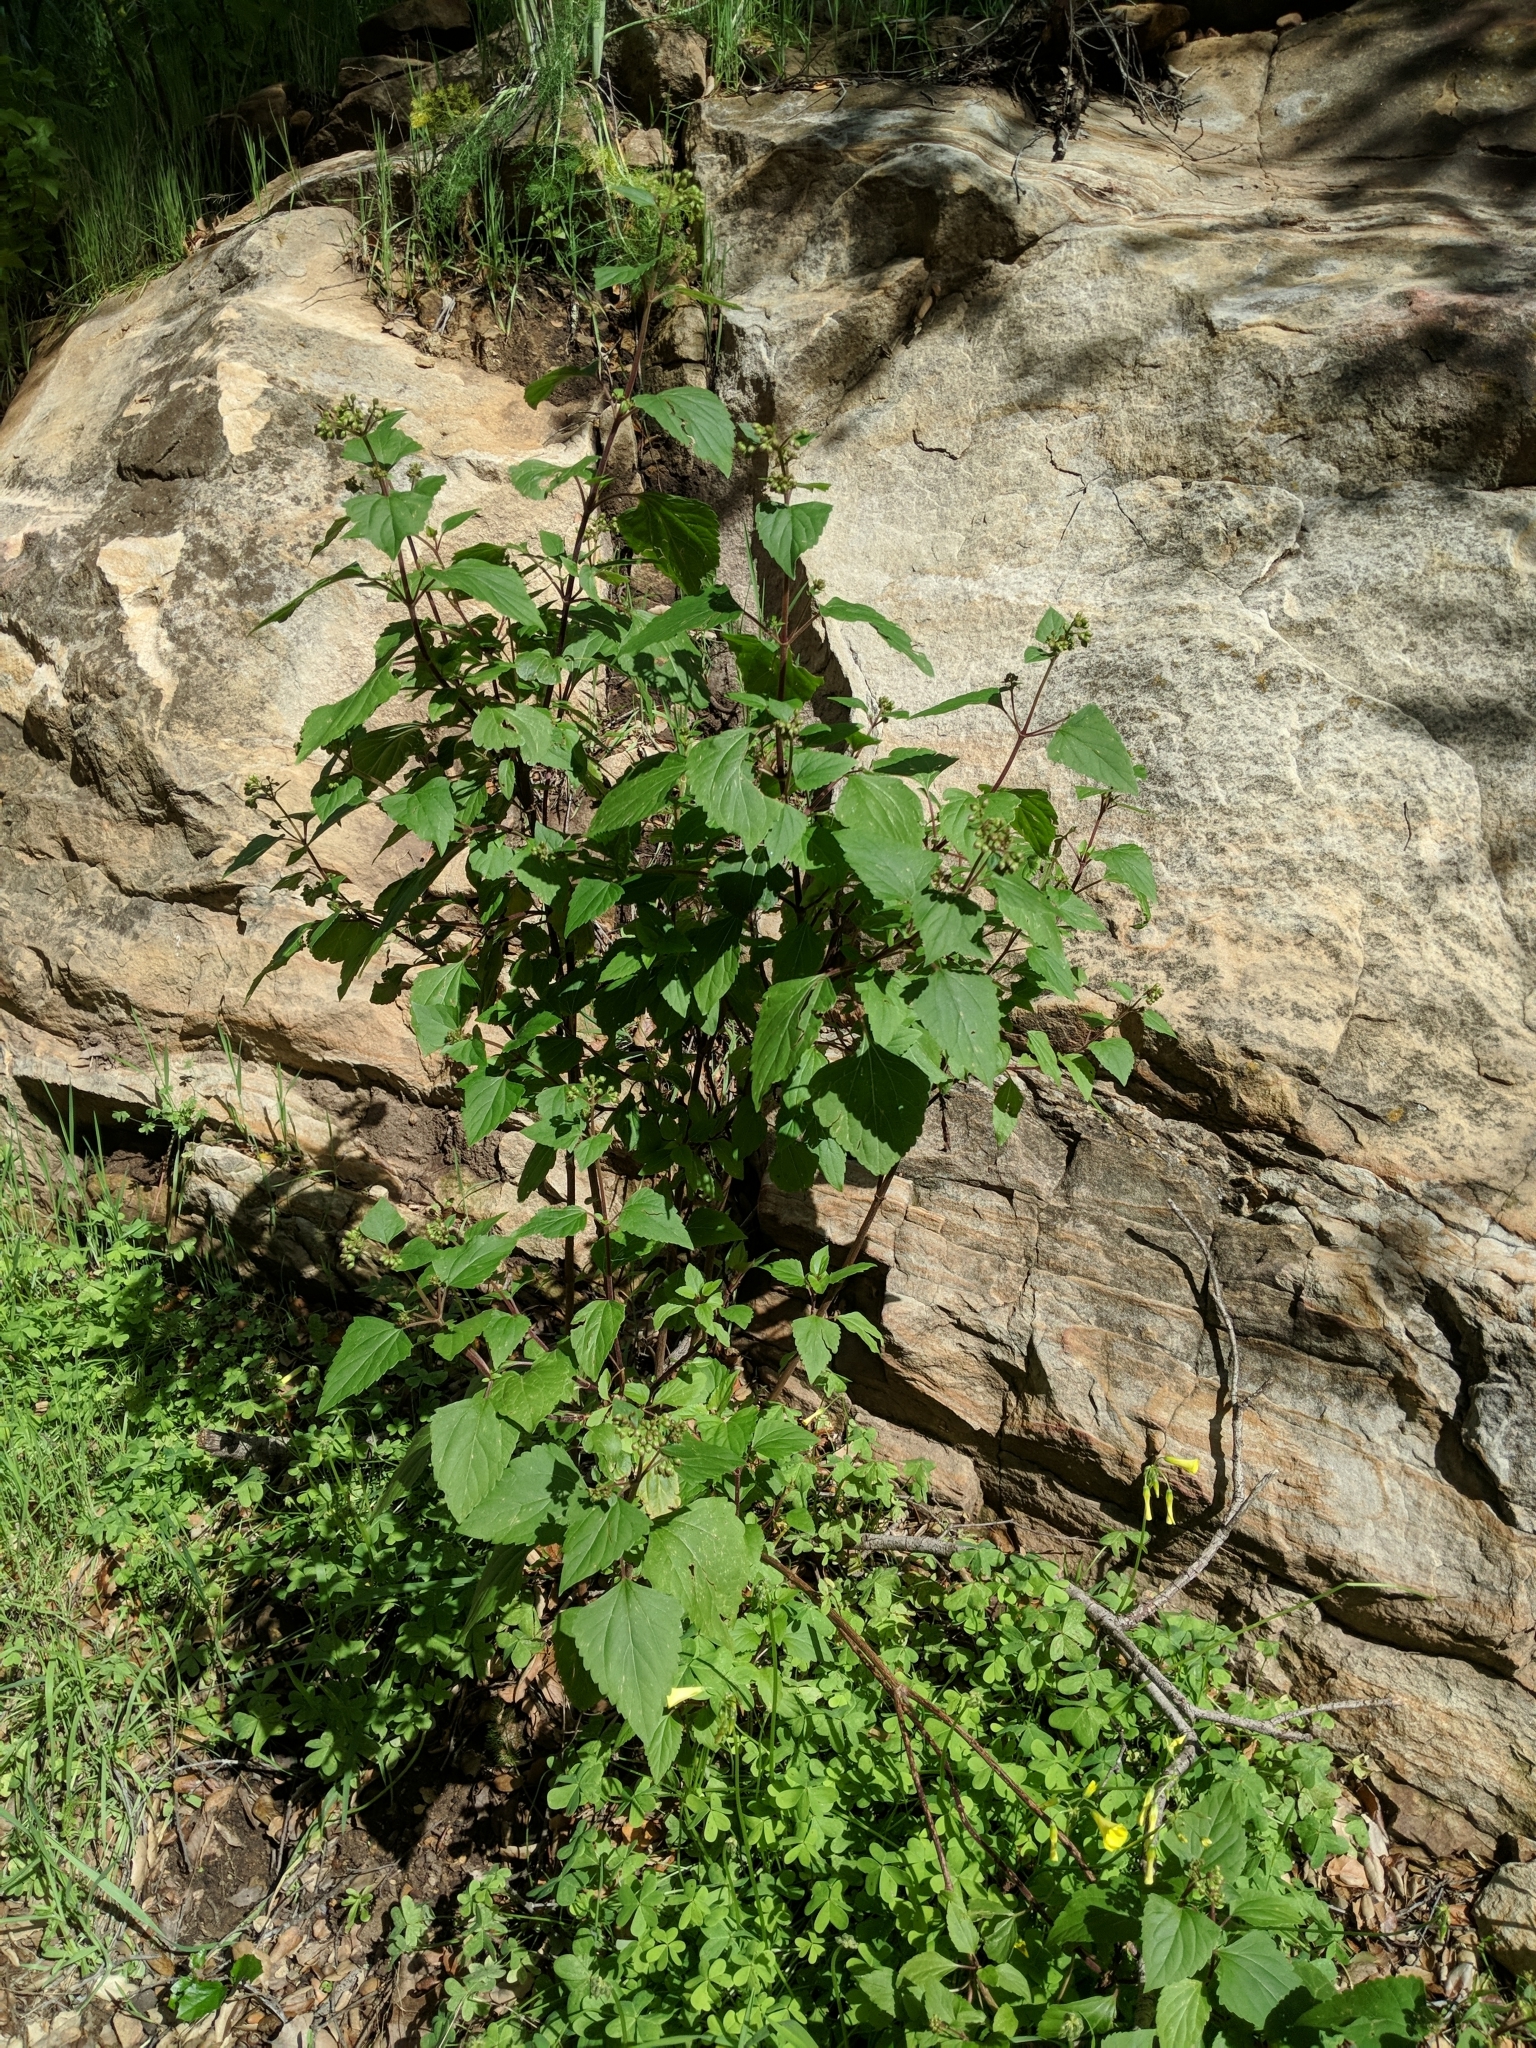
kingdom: Plantae
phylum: Tracheophyta
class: Magnoliopsida
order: Asterales
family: Asteraceae
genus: Ageratina
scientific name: Ageratina adenophora
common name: Sticky snakeroot
